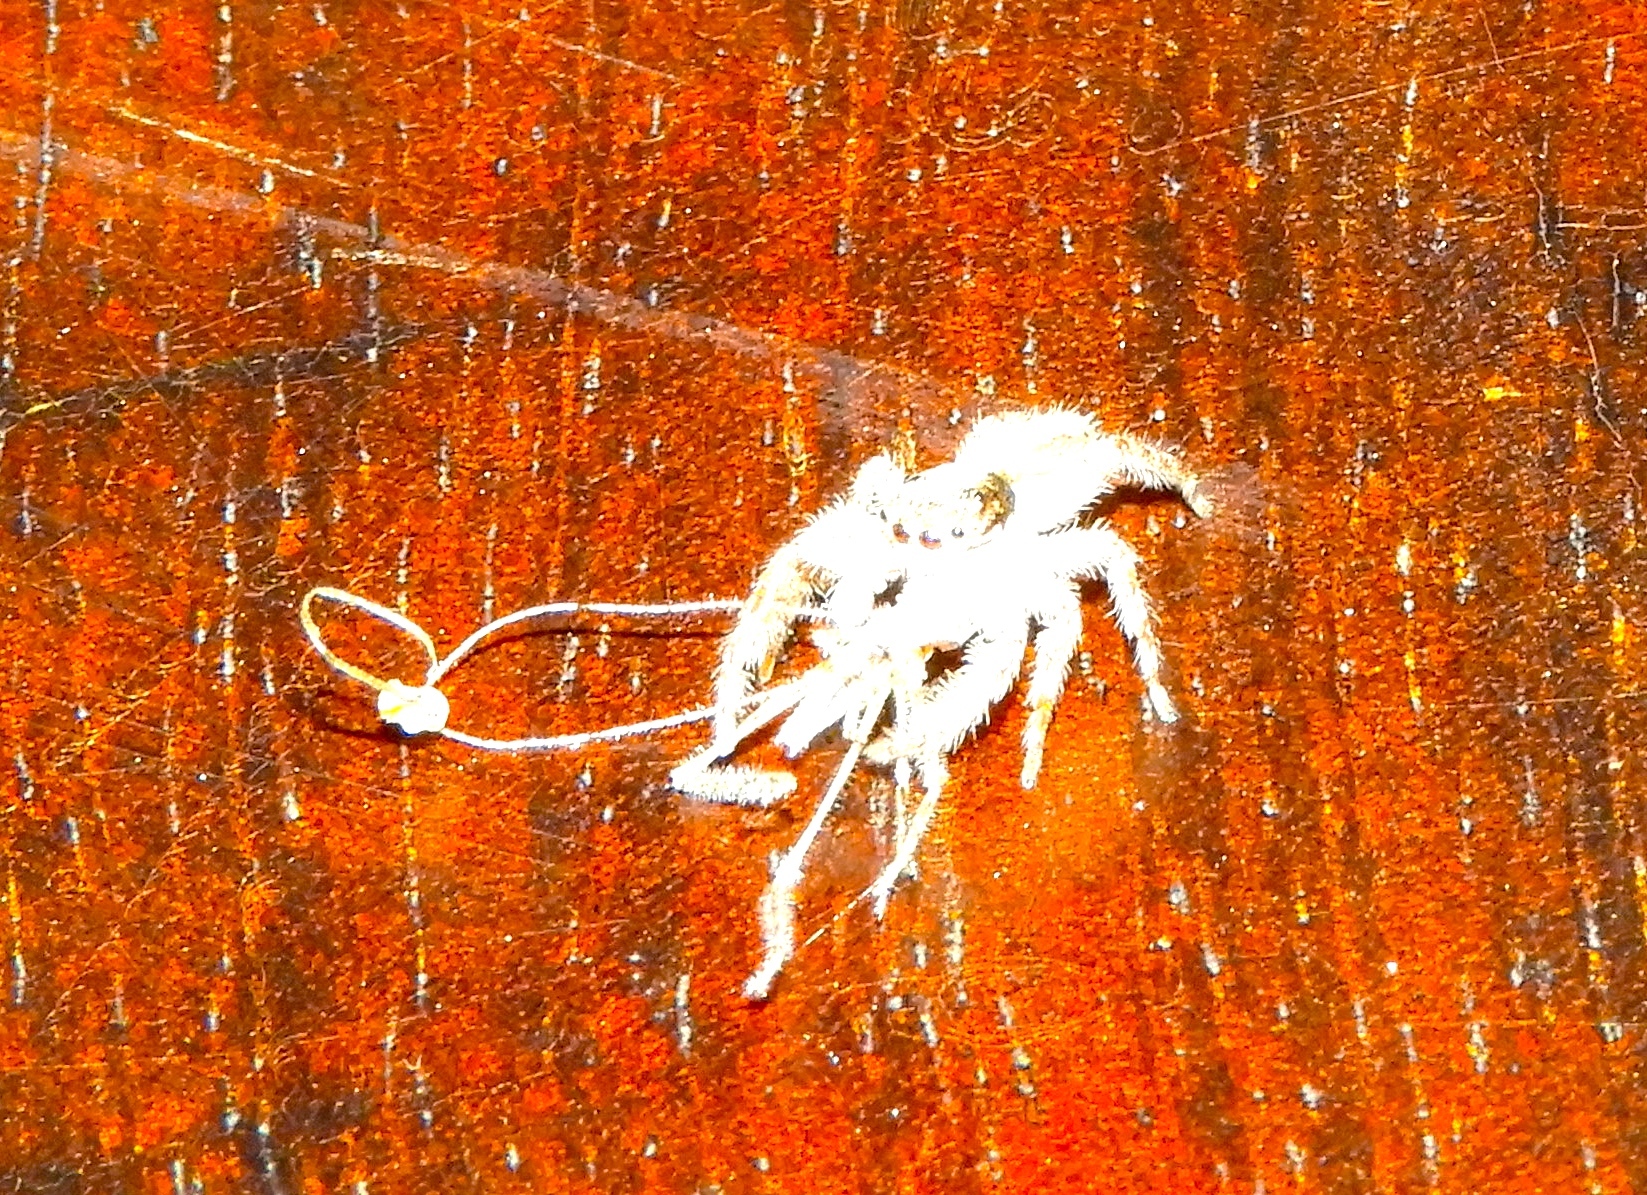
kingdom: Animalia
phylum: Arthropoda
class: Arachnida
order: Araneae
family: Salticidae
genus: Menemerus
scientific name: Menemerus bivittatus
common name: Gray wall jumper
